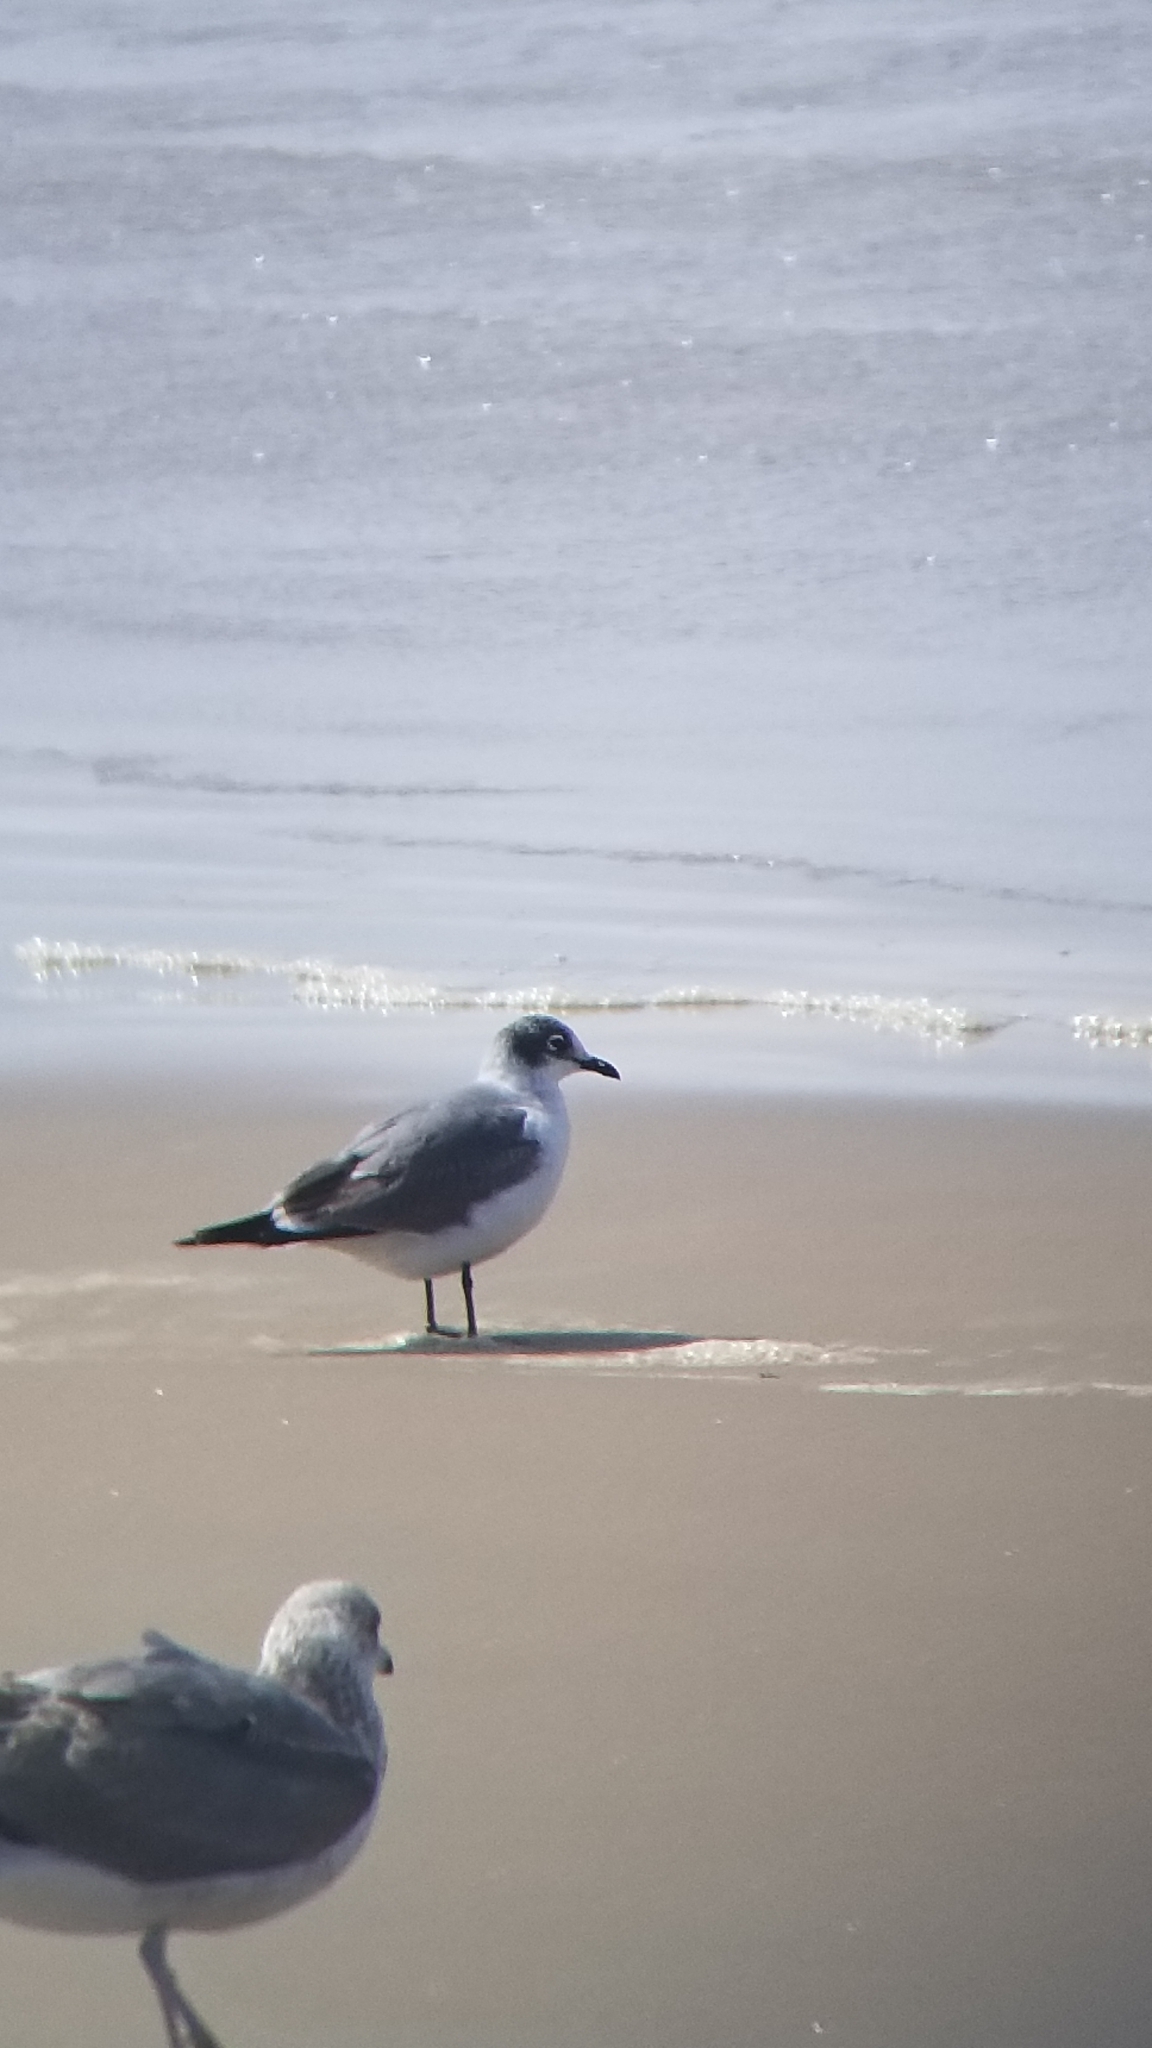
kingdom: Animalia
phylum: Chordata
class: Aves
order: Charadriiformes
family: Laridae
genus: Leucophaeus
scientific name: Leucophaeus pipixcan
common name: Franklin's gull
